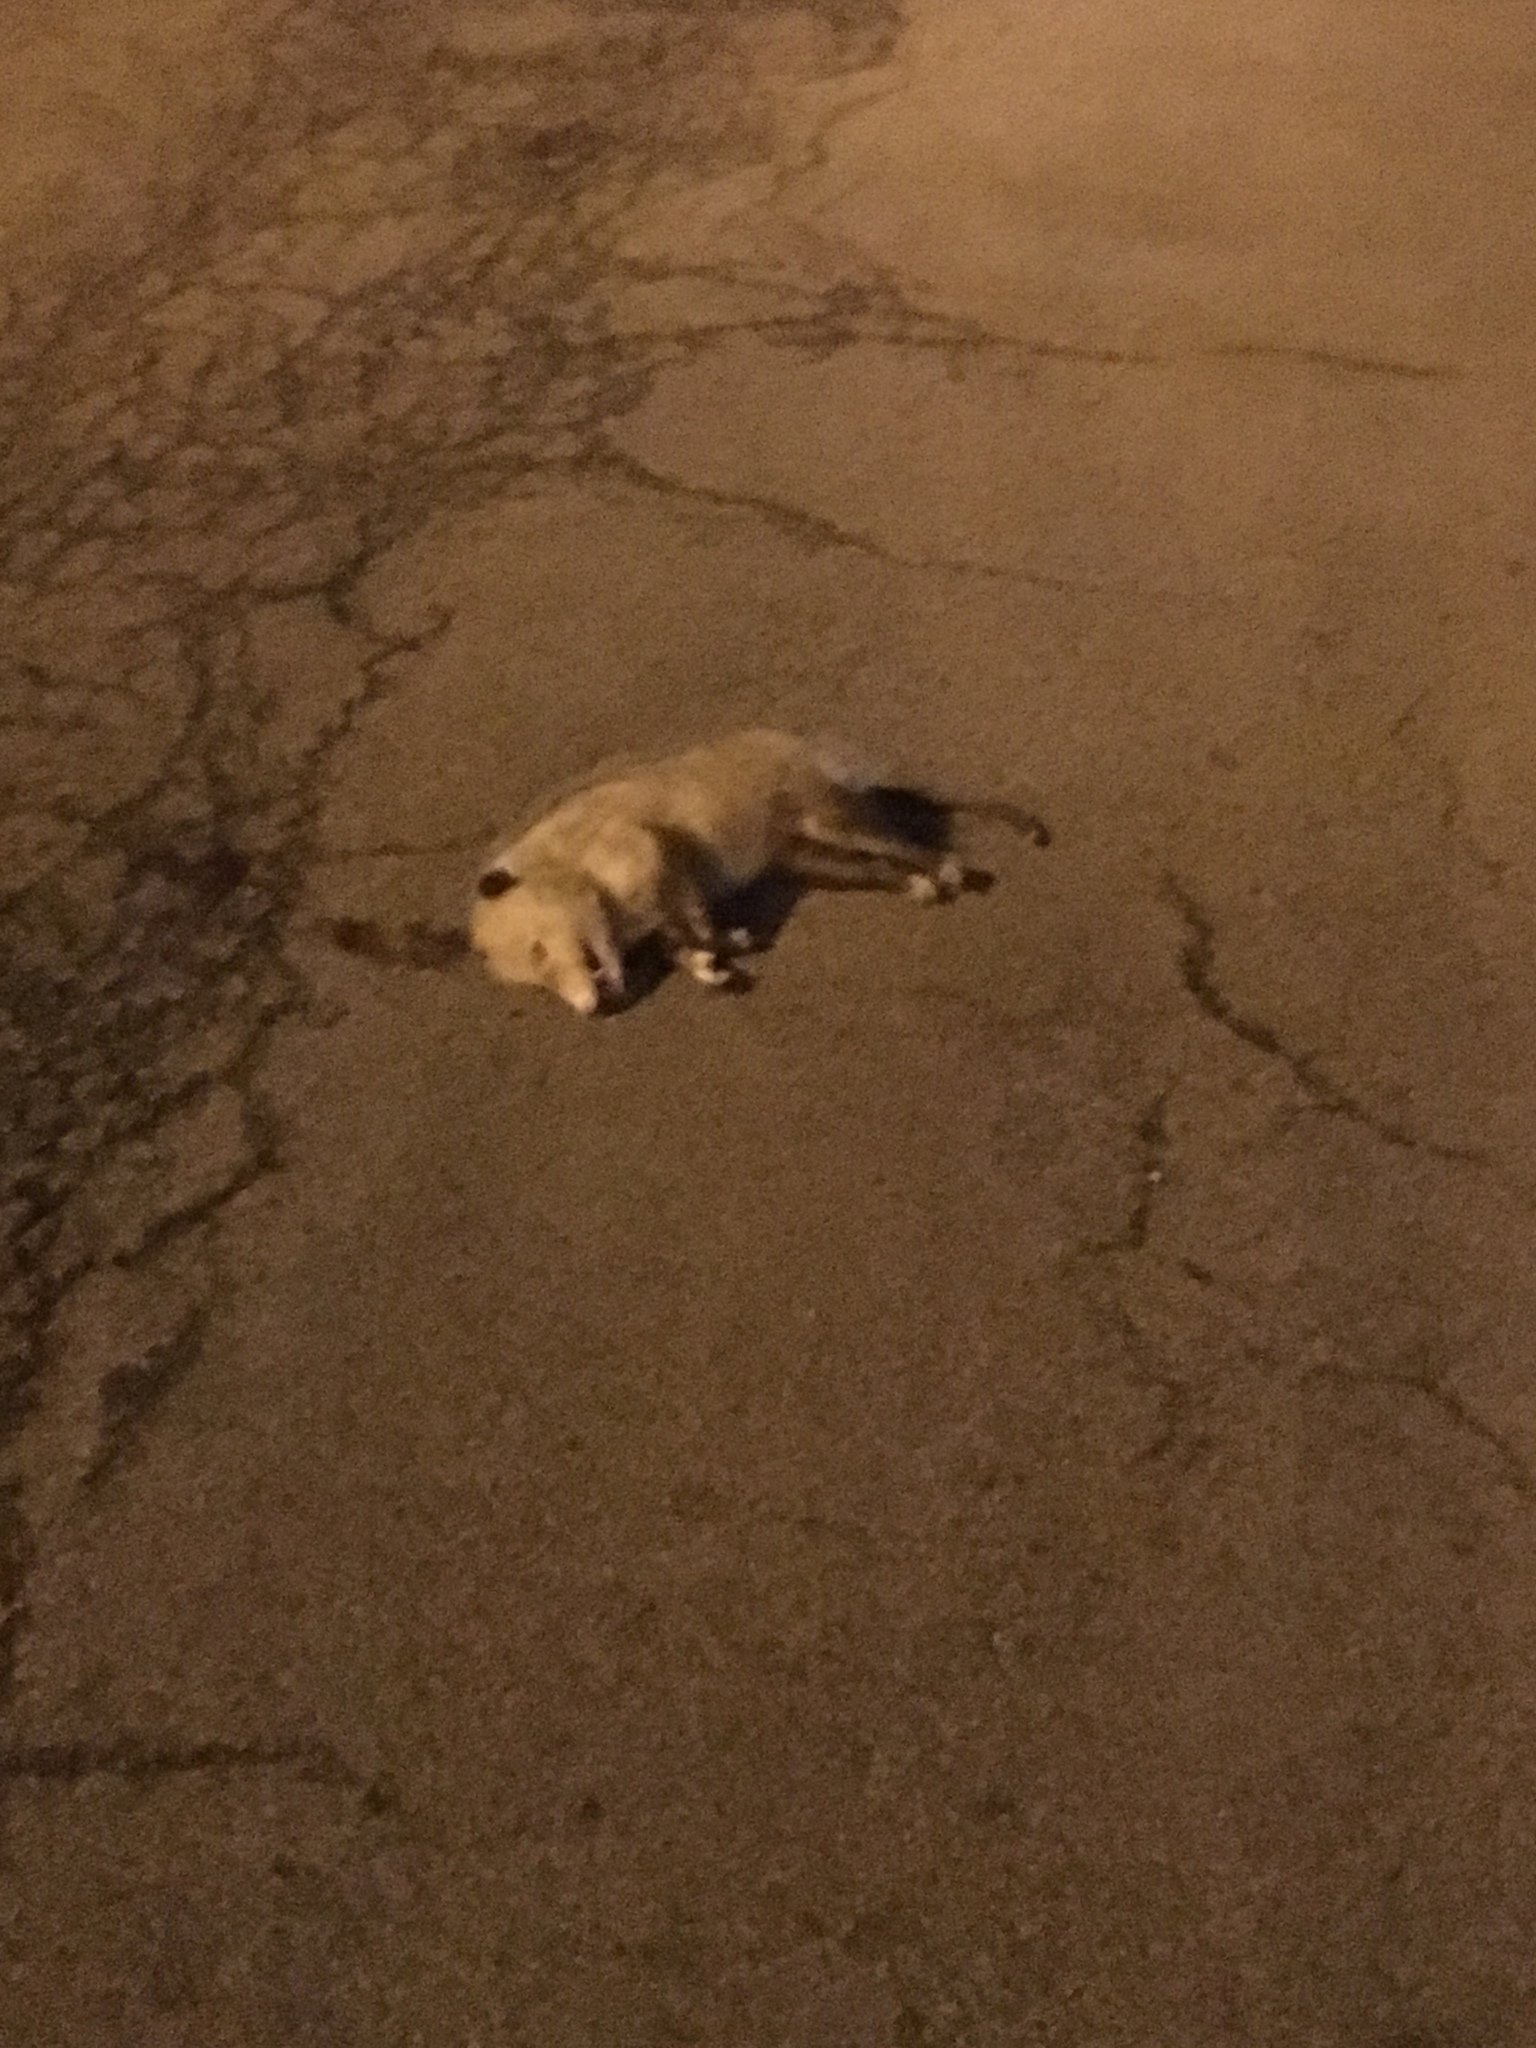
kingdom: Animalia
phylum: Chordata
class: Mammalia
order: Didelphimorphia
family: Didelphidae
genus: Didelphis
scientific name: Didelphis virginiana
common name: Virginia opossum
